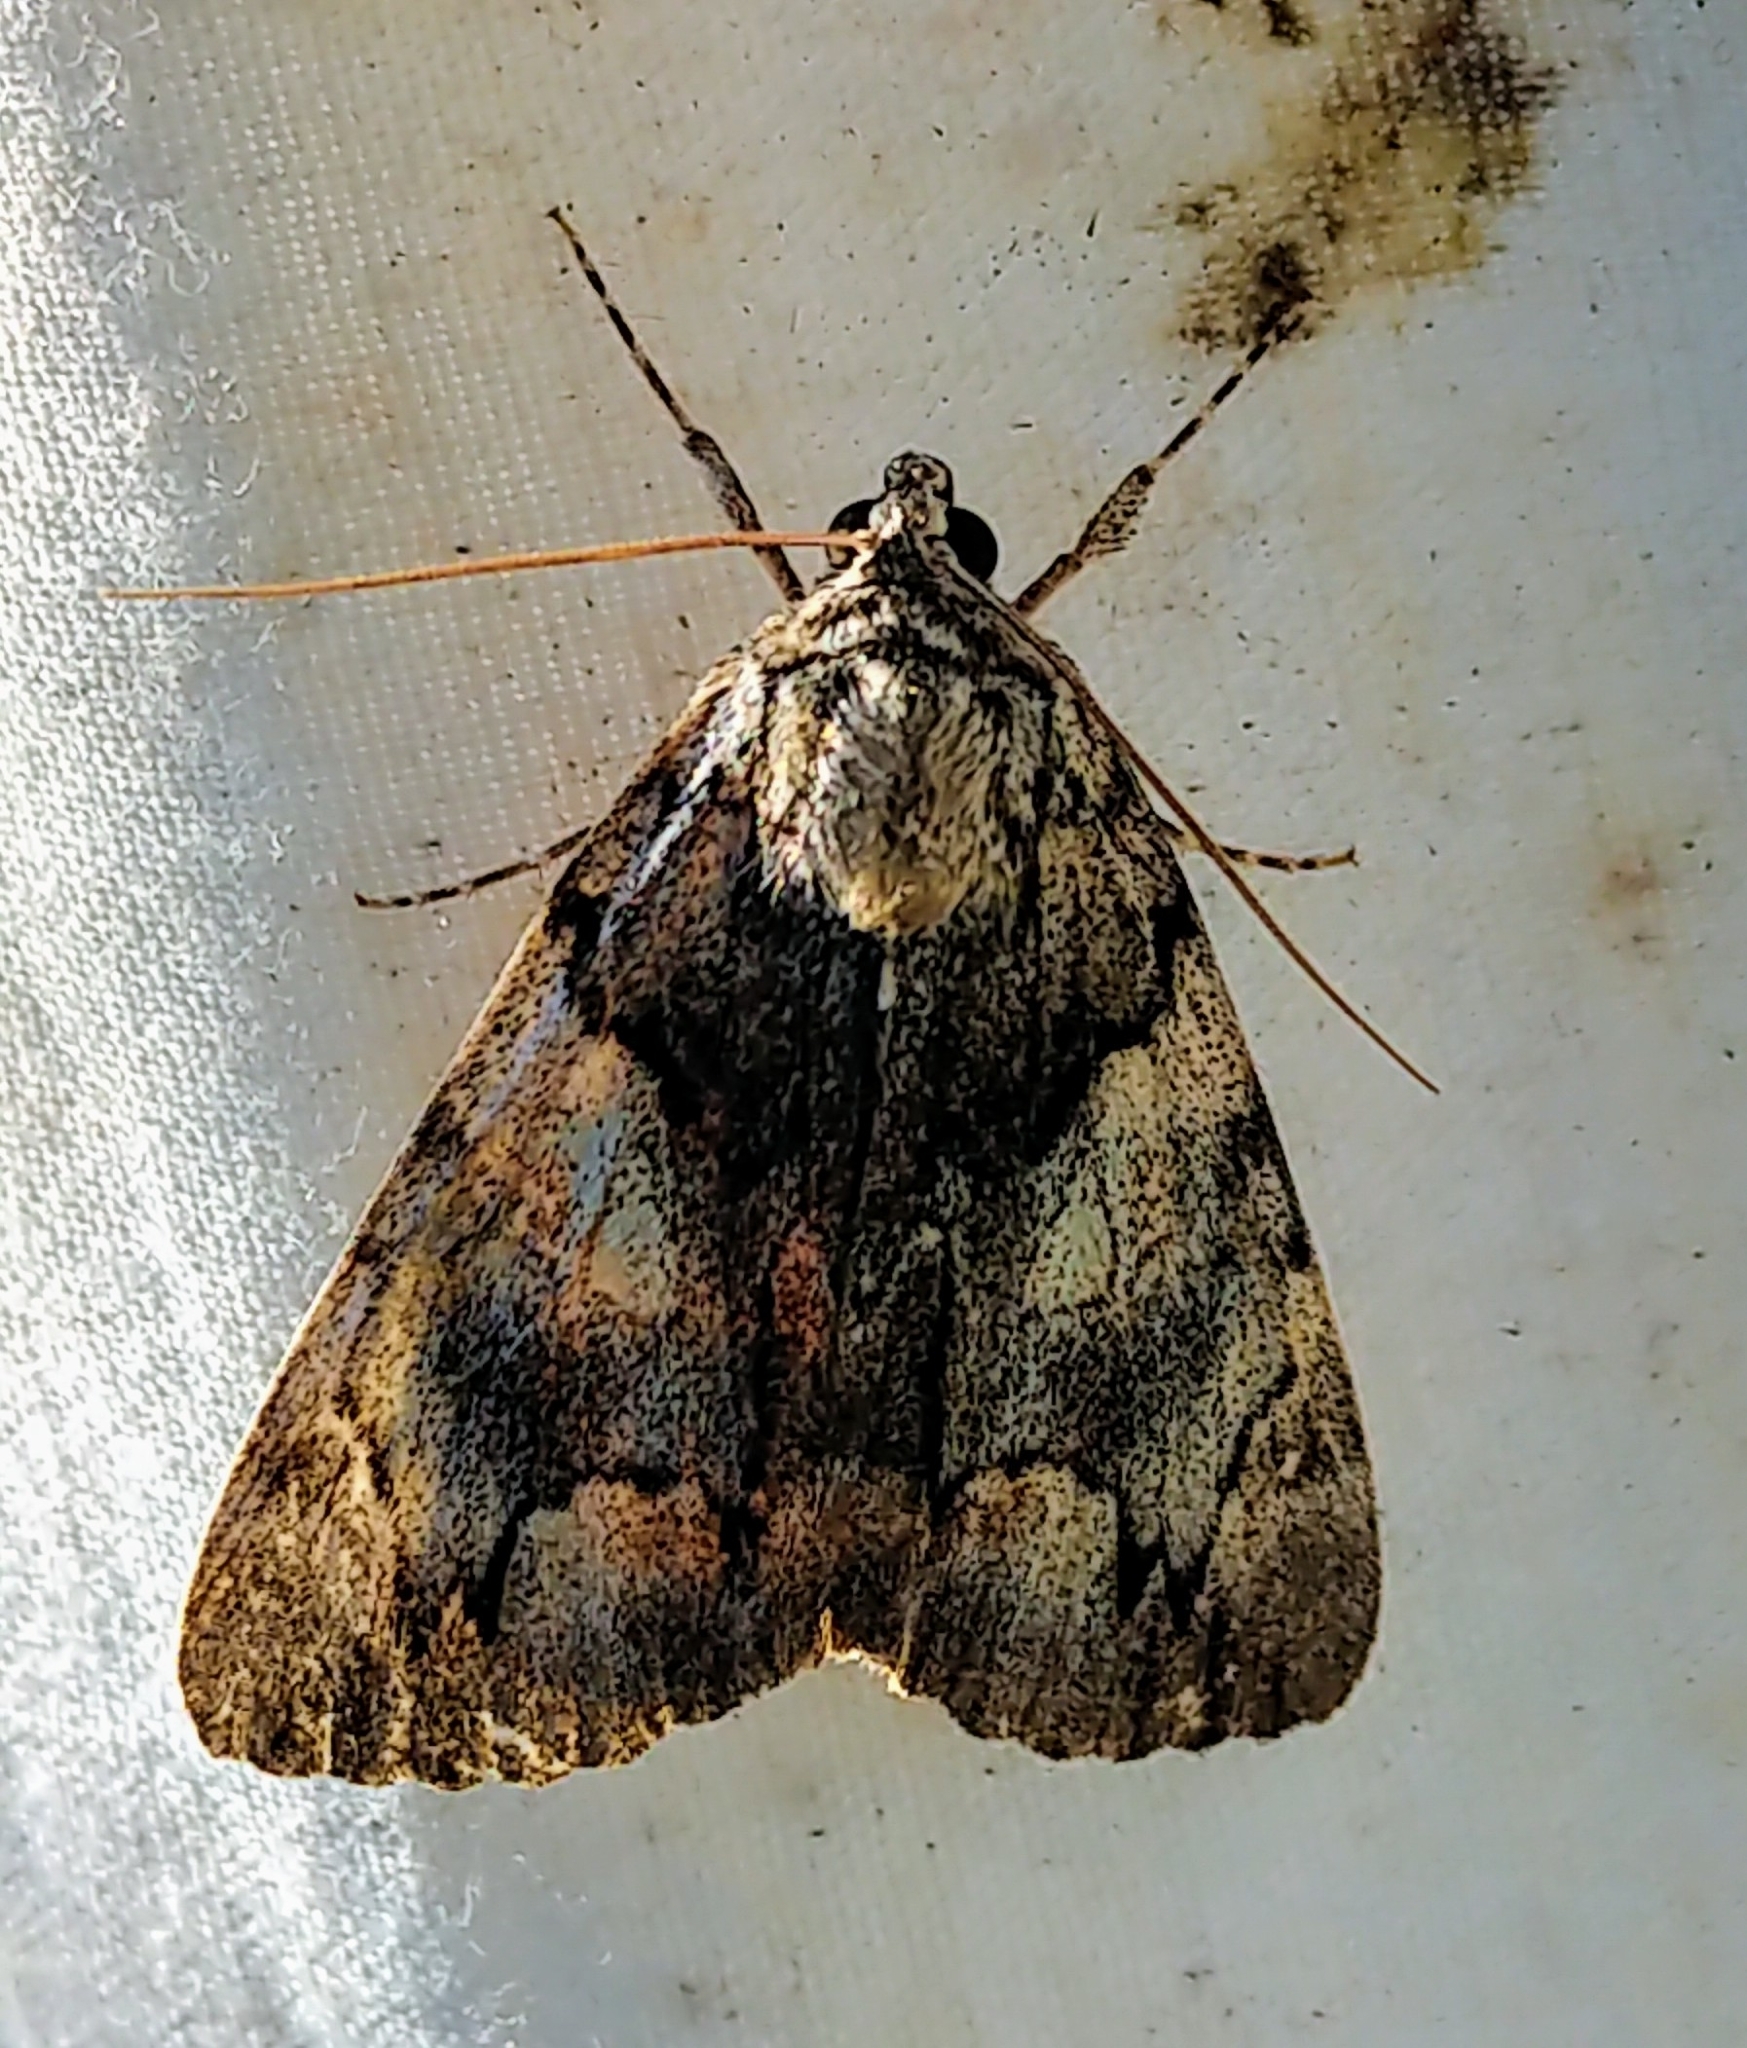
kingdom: Animalia
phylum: Arthropoda
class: Insecta
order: Lepidoptera
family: Erebidae
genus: Catocala
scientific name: Catocala blandula
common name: Charming underwing
